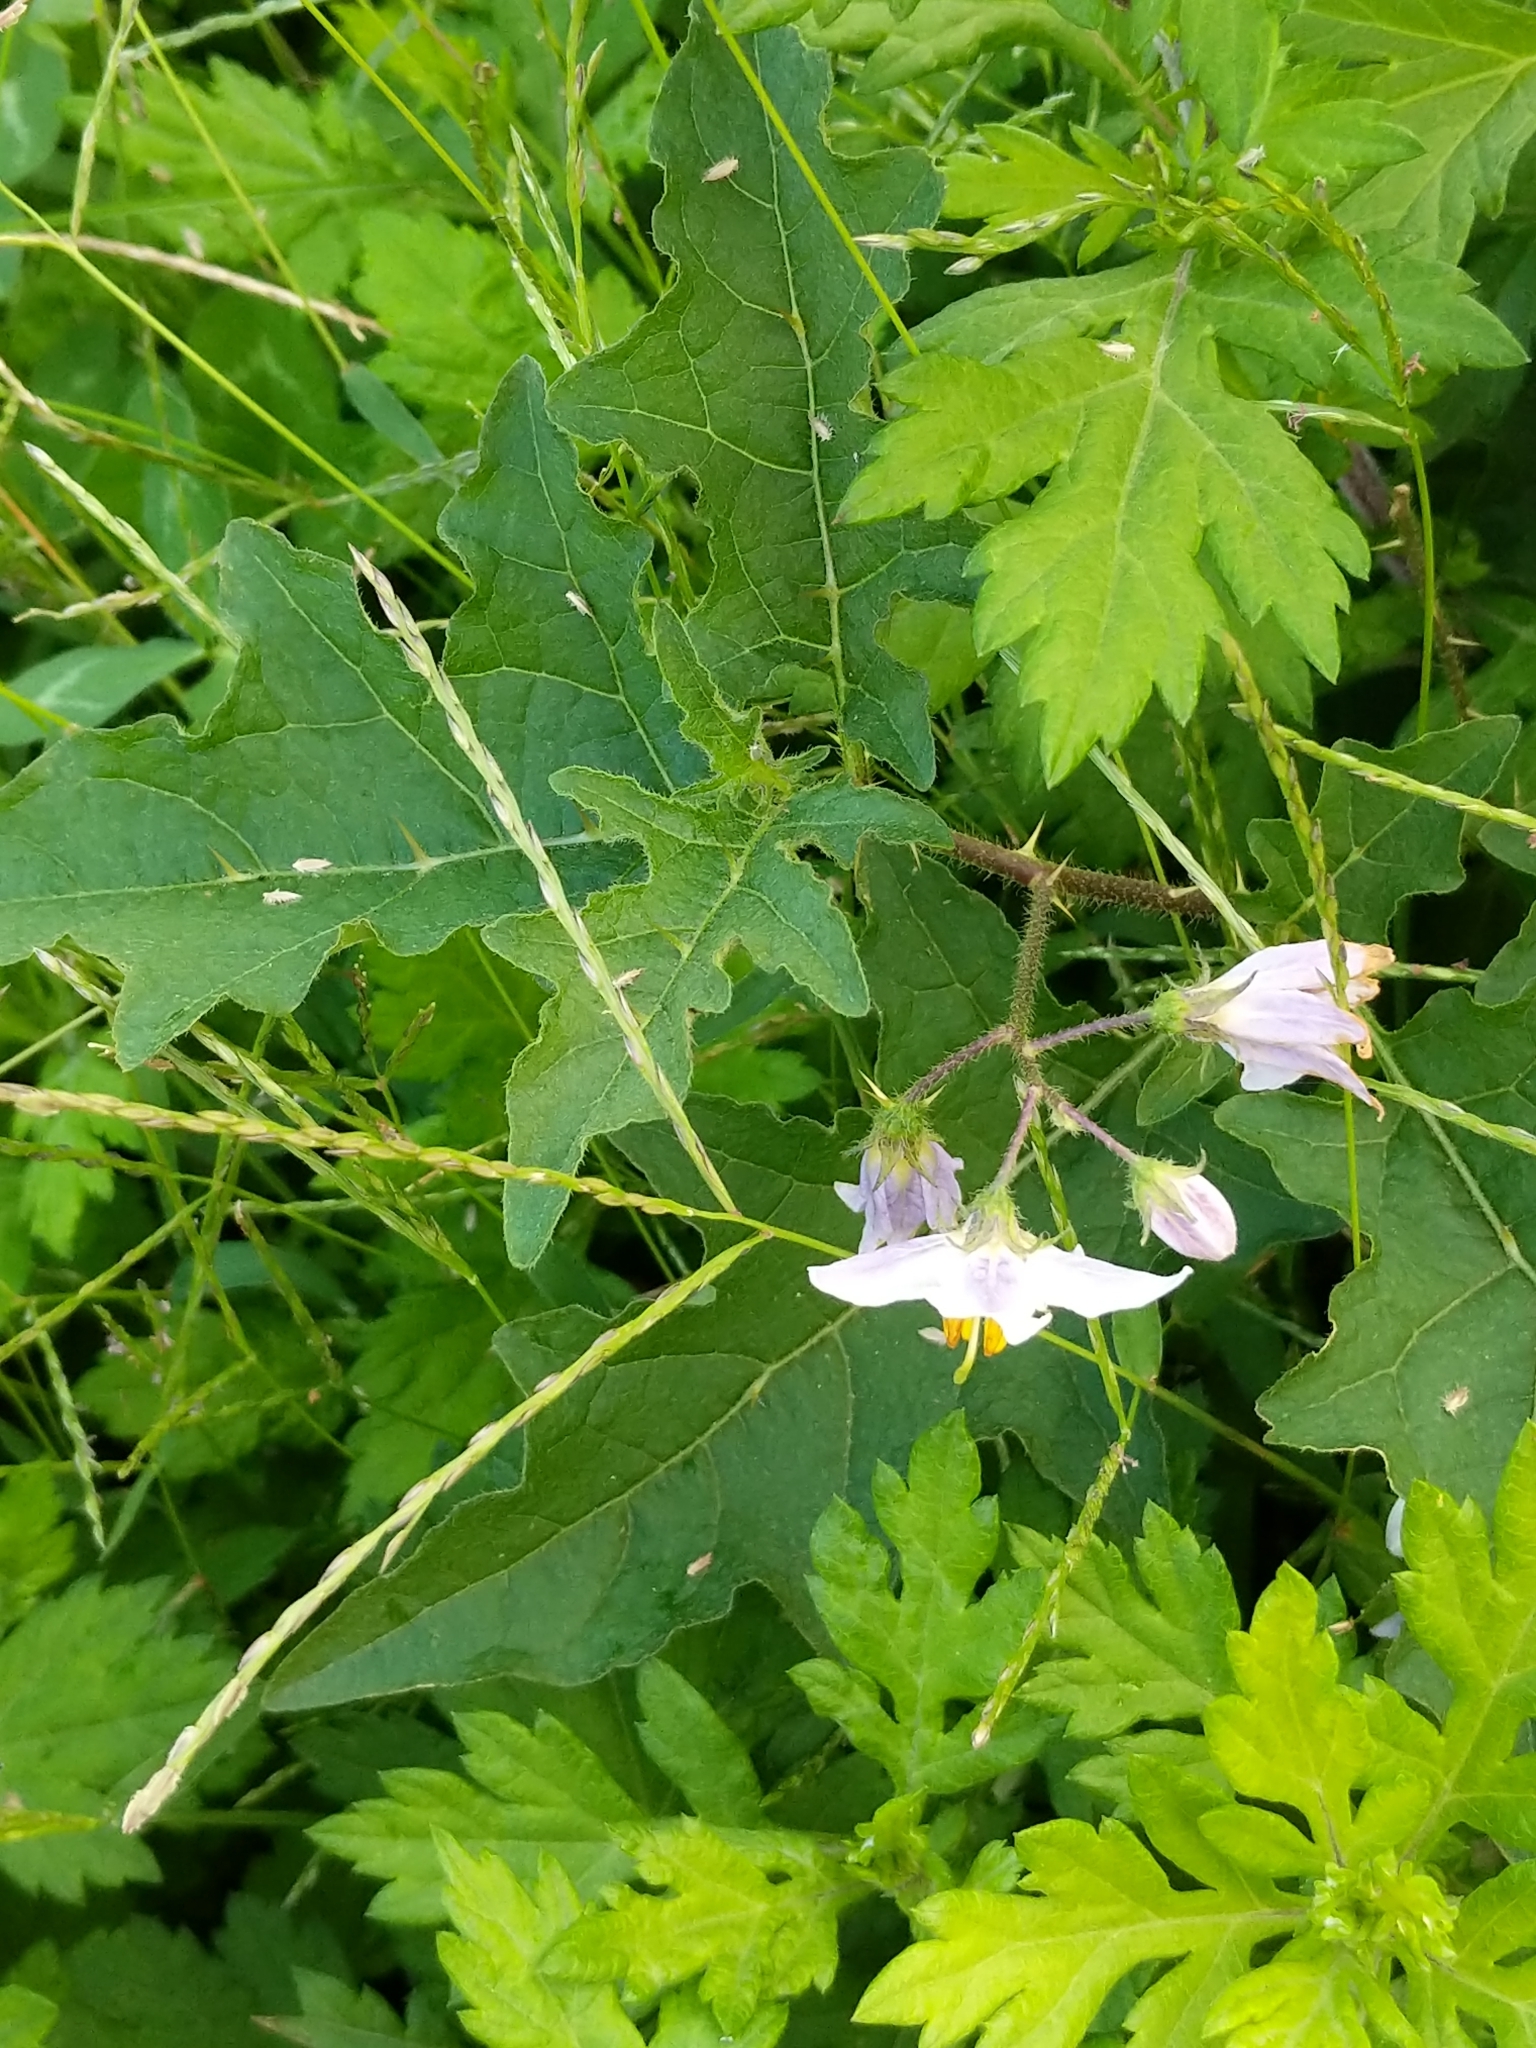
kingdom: Plantae
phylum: Tracheophyta
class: Magnoliopsida
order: Solanales
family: Solanaceae
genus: Solanum
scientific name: Solanum carolinense
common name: Horse-nettle
